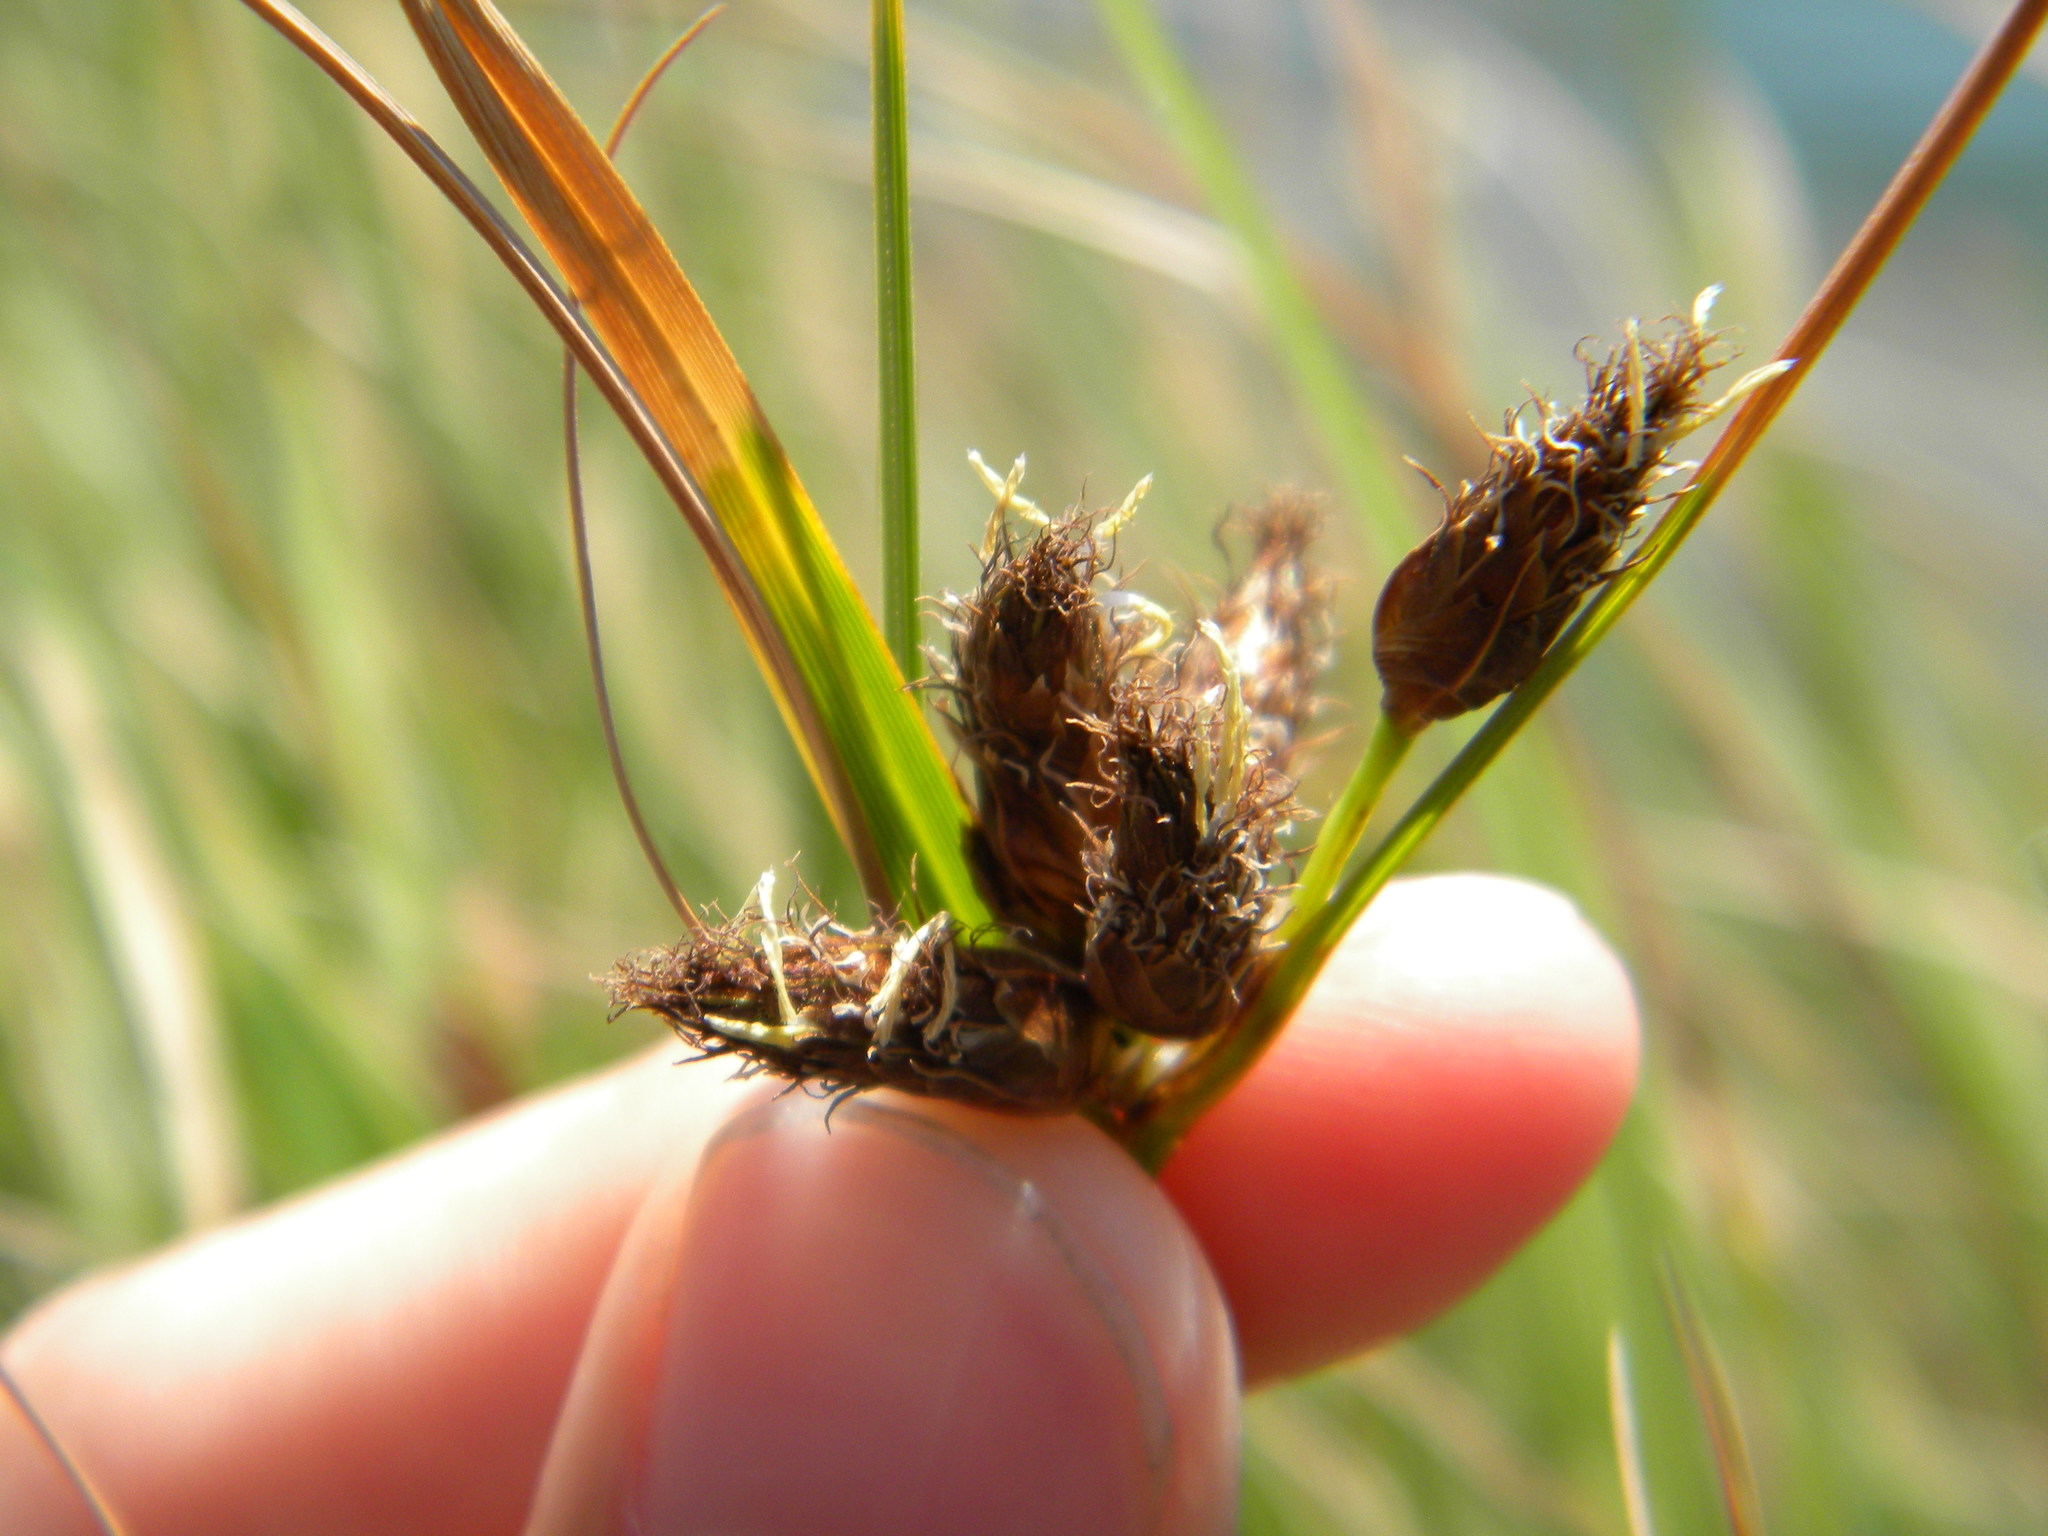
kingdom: Plantae
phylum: Tracheophyta
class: Liliopsida
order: Poales
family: Cyperaceae
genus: Bolboschoenus
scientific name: Bolboschoenus maritimus
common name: Sea club-rush
